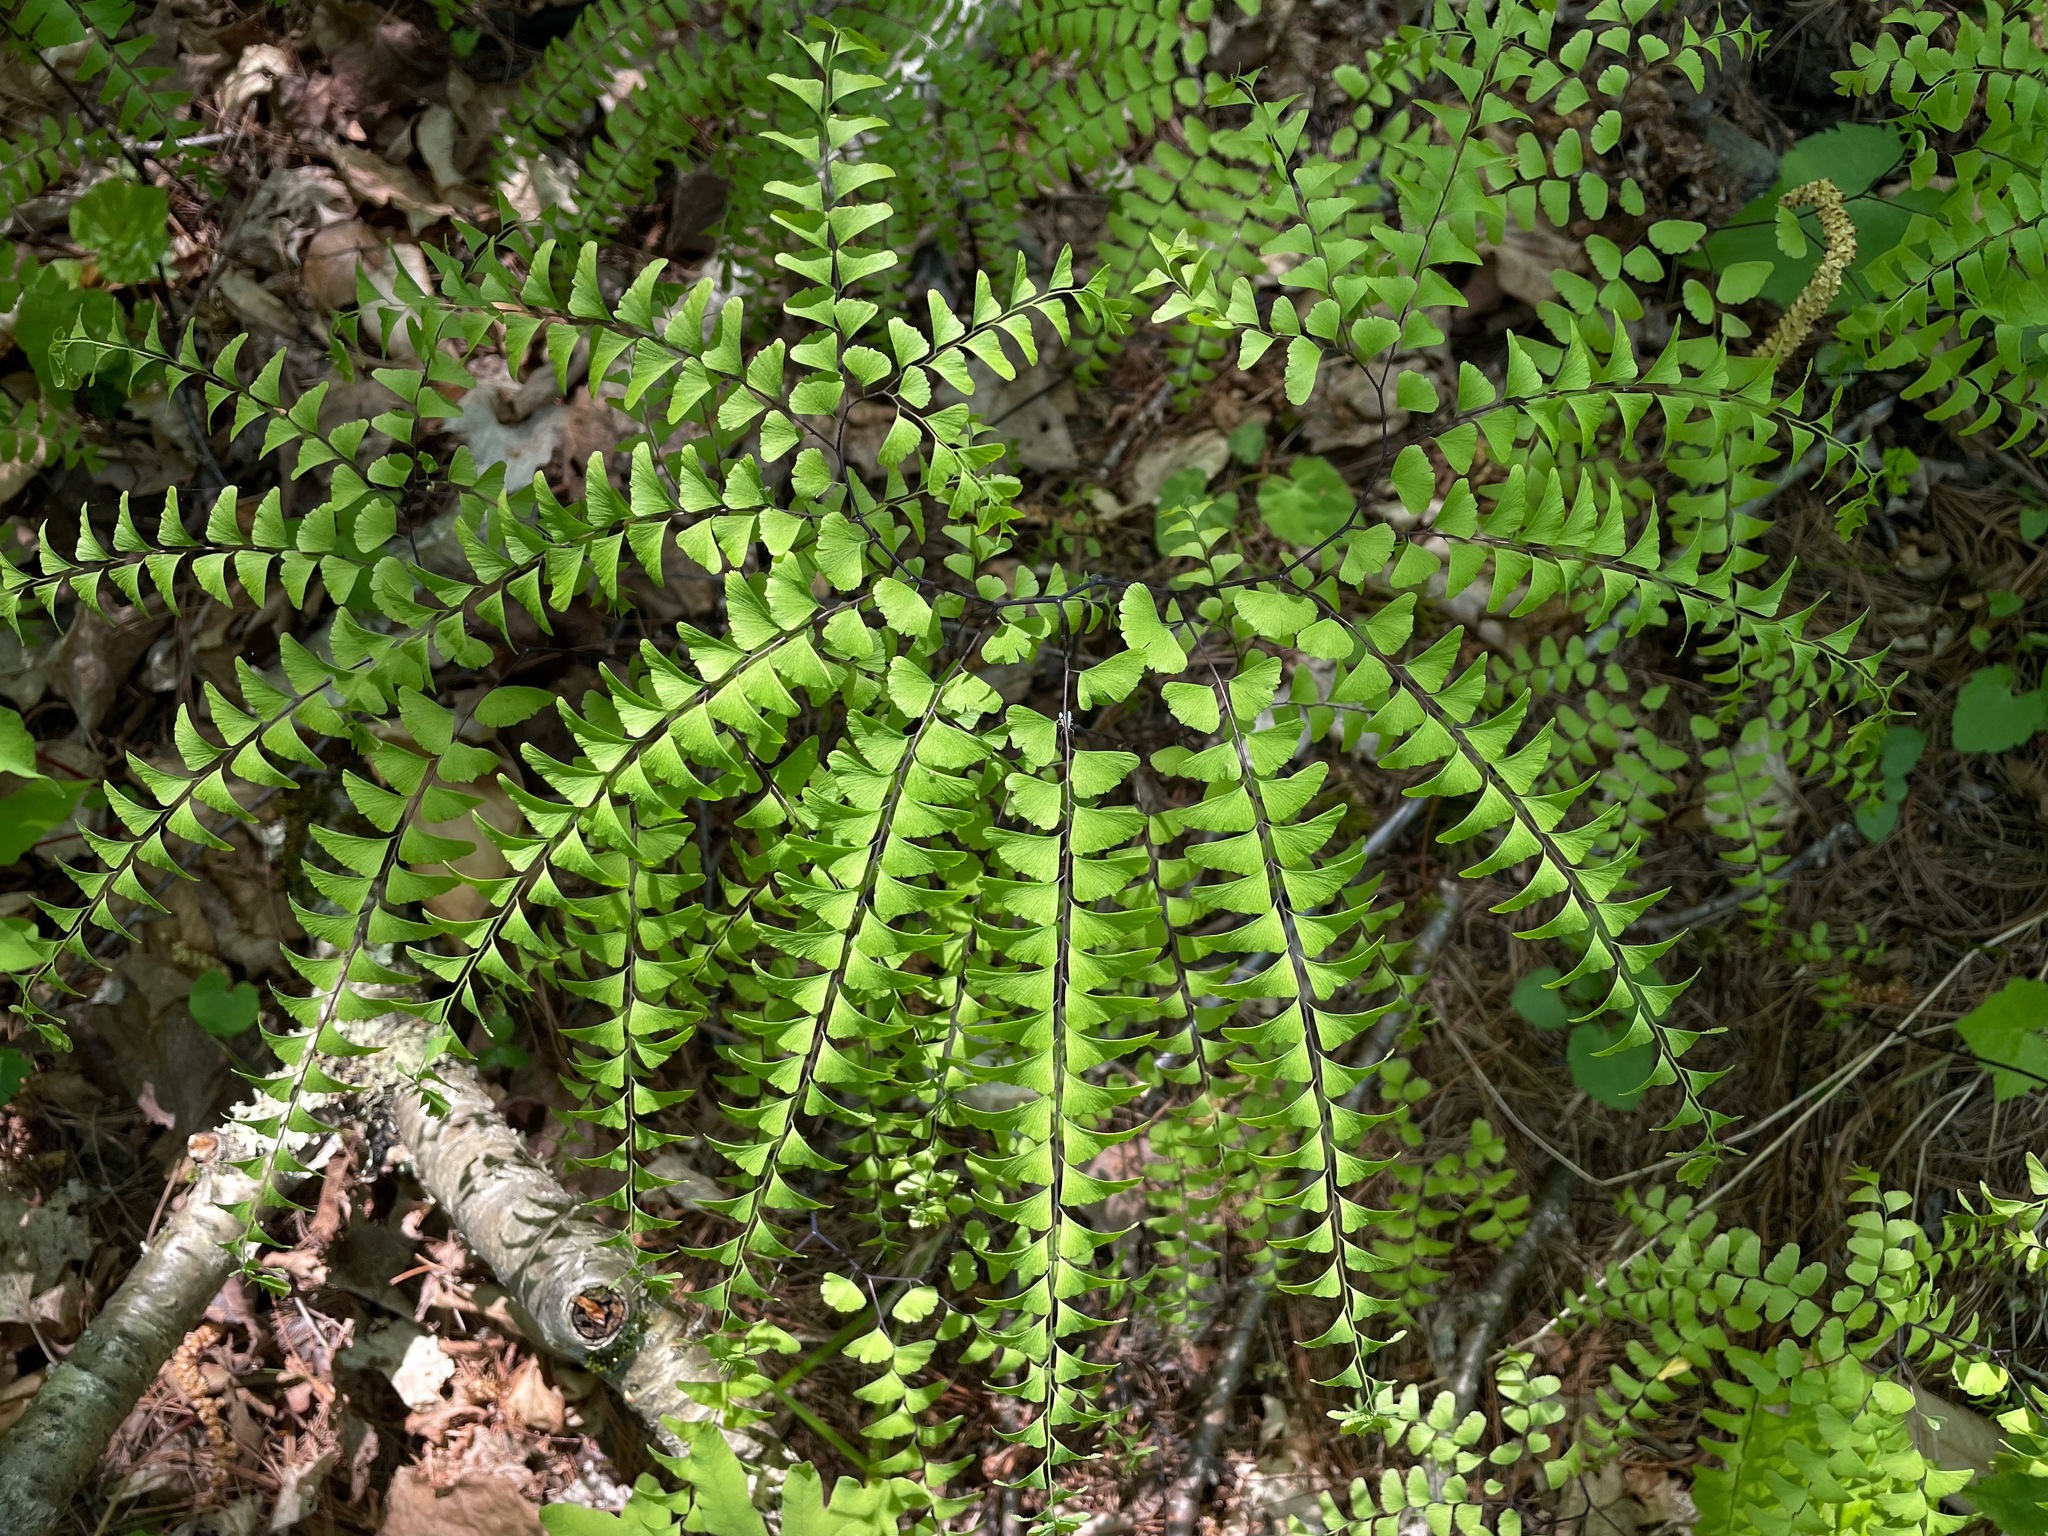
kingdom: Plantae
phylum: Tracheophyta
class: Polypodiopsida
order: Polypodiales
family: Pteridaceae
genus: Adiantum
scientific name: Adiantum pedatum
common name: Five-finger fern
